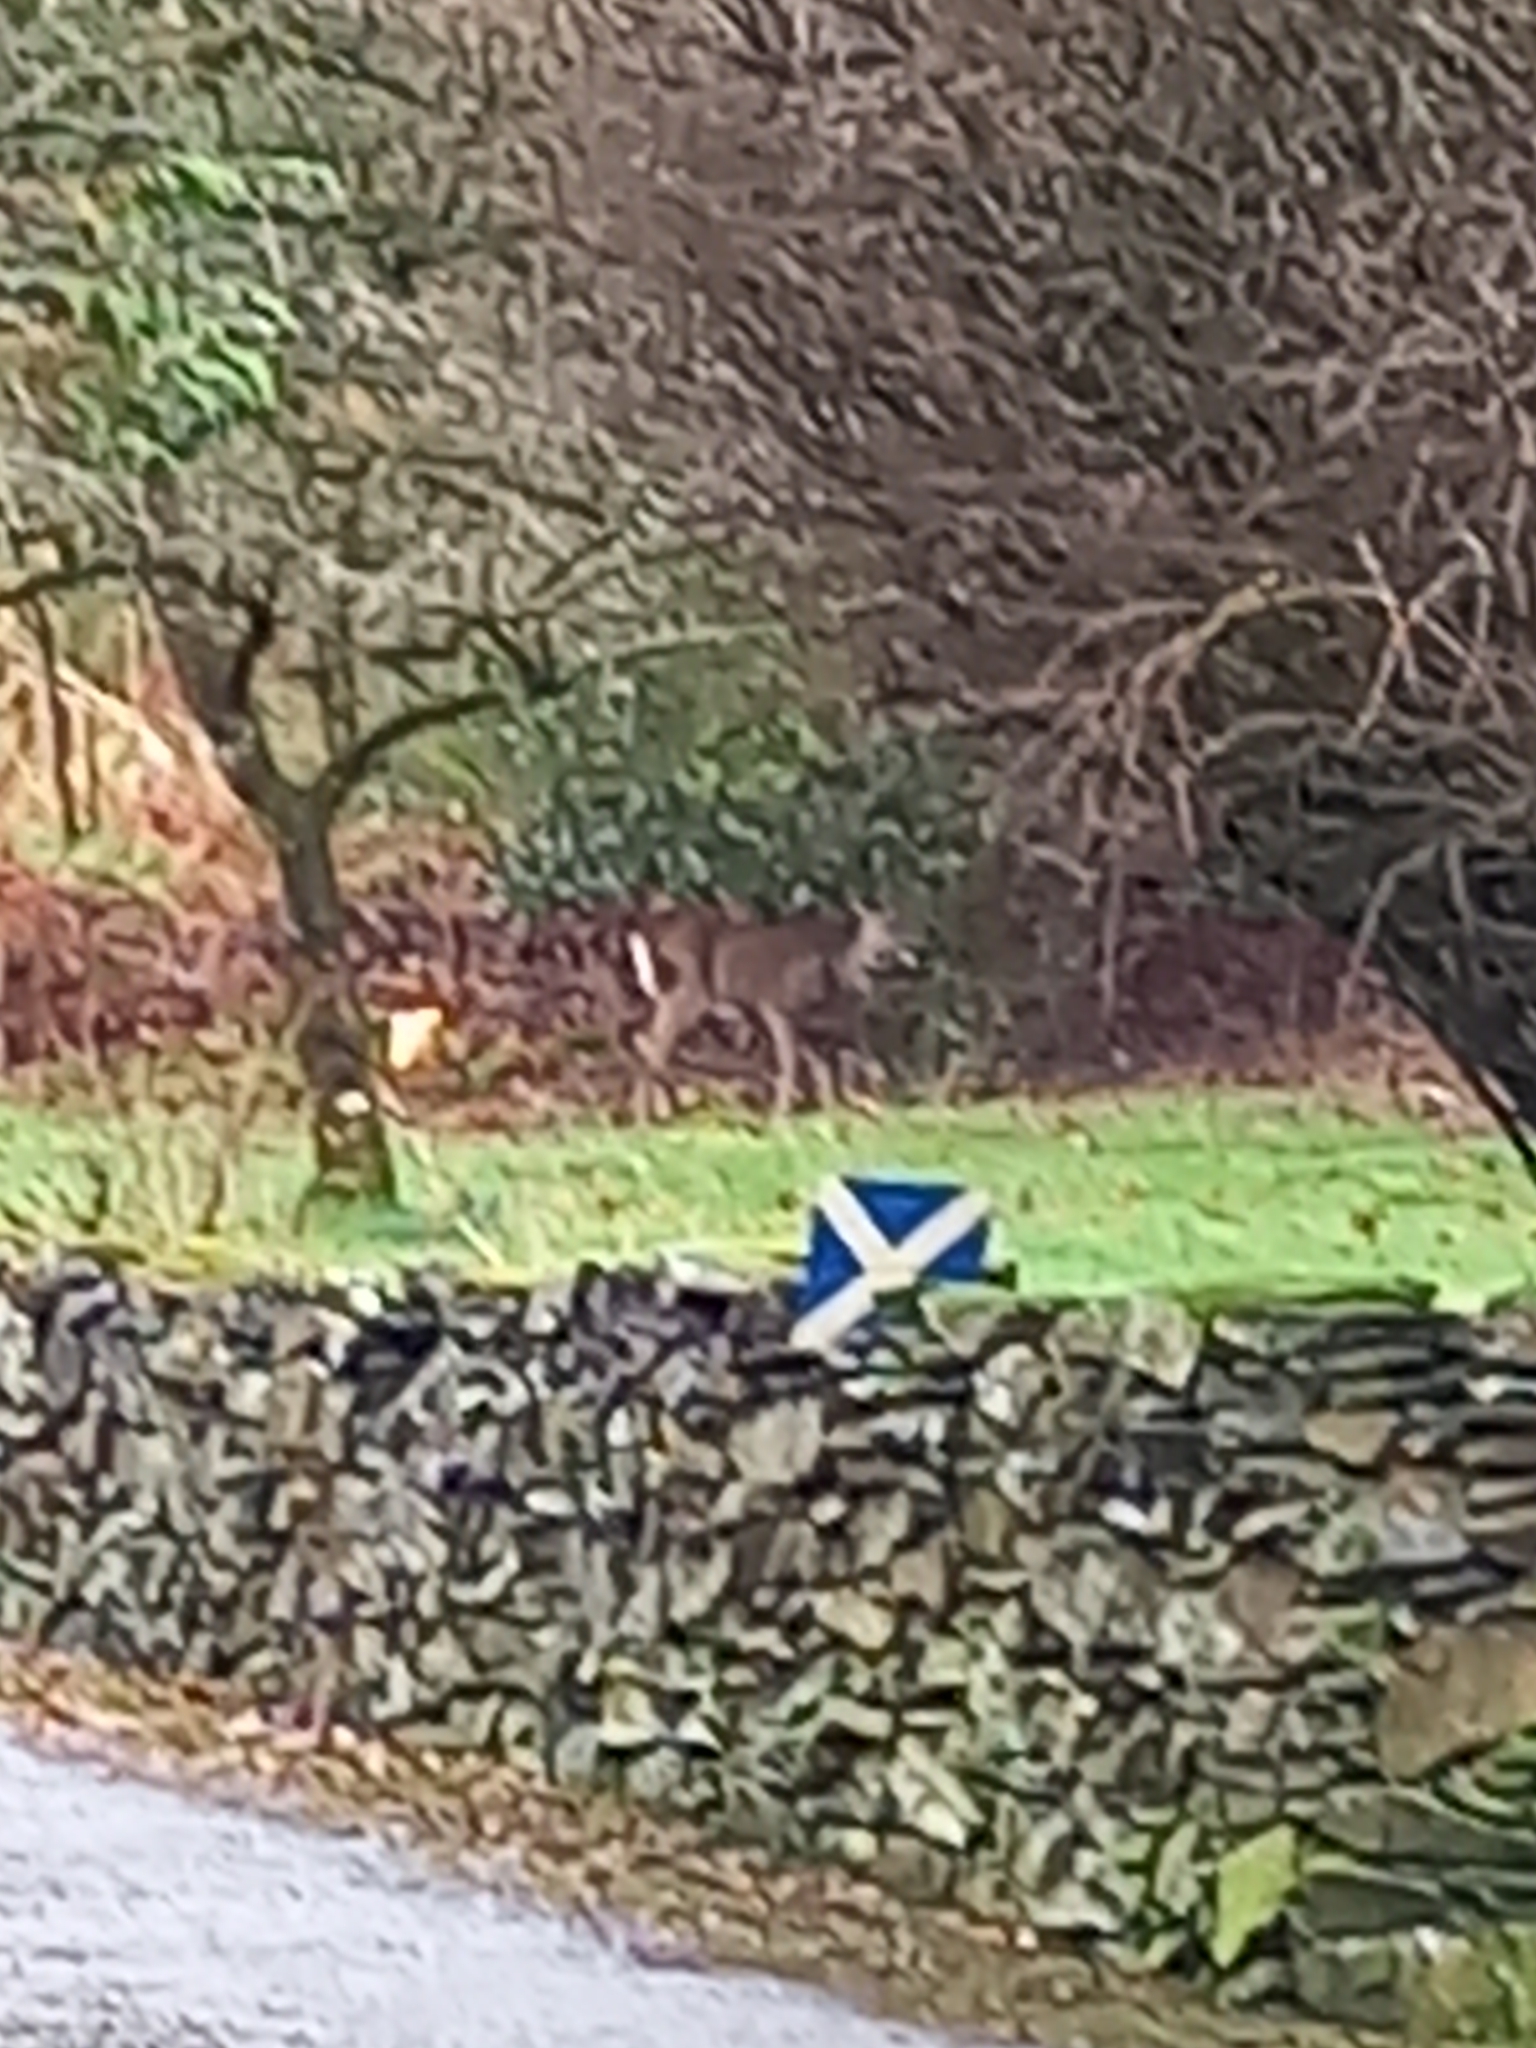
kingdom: Animalia
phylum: Chordata
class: Mammalia
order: Artiodactyla
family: Cervidae
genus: Capreolus
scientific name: Capreolus capreolus
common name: Western roe deer
